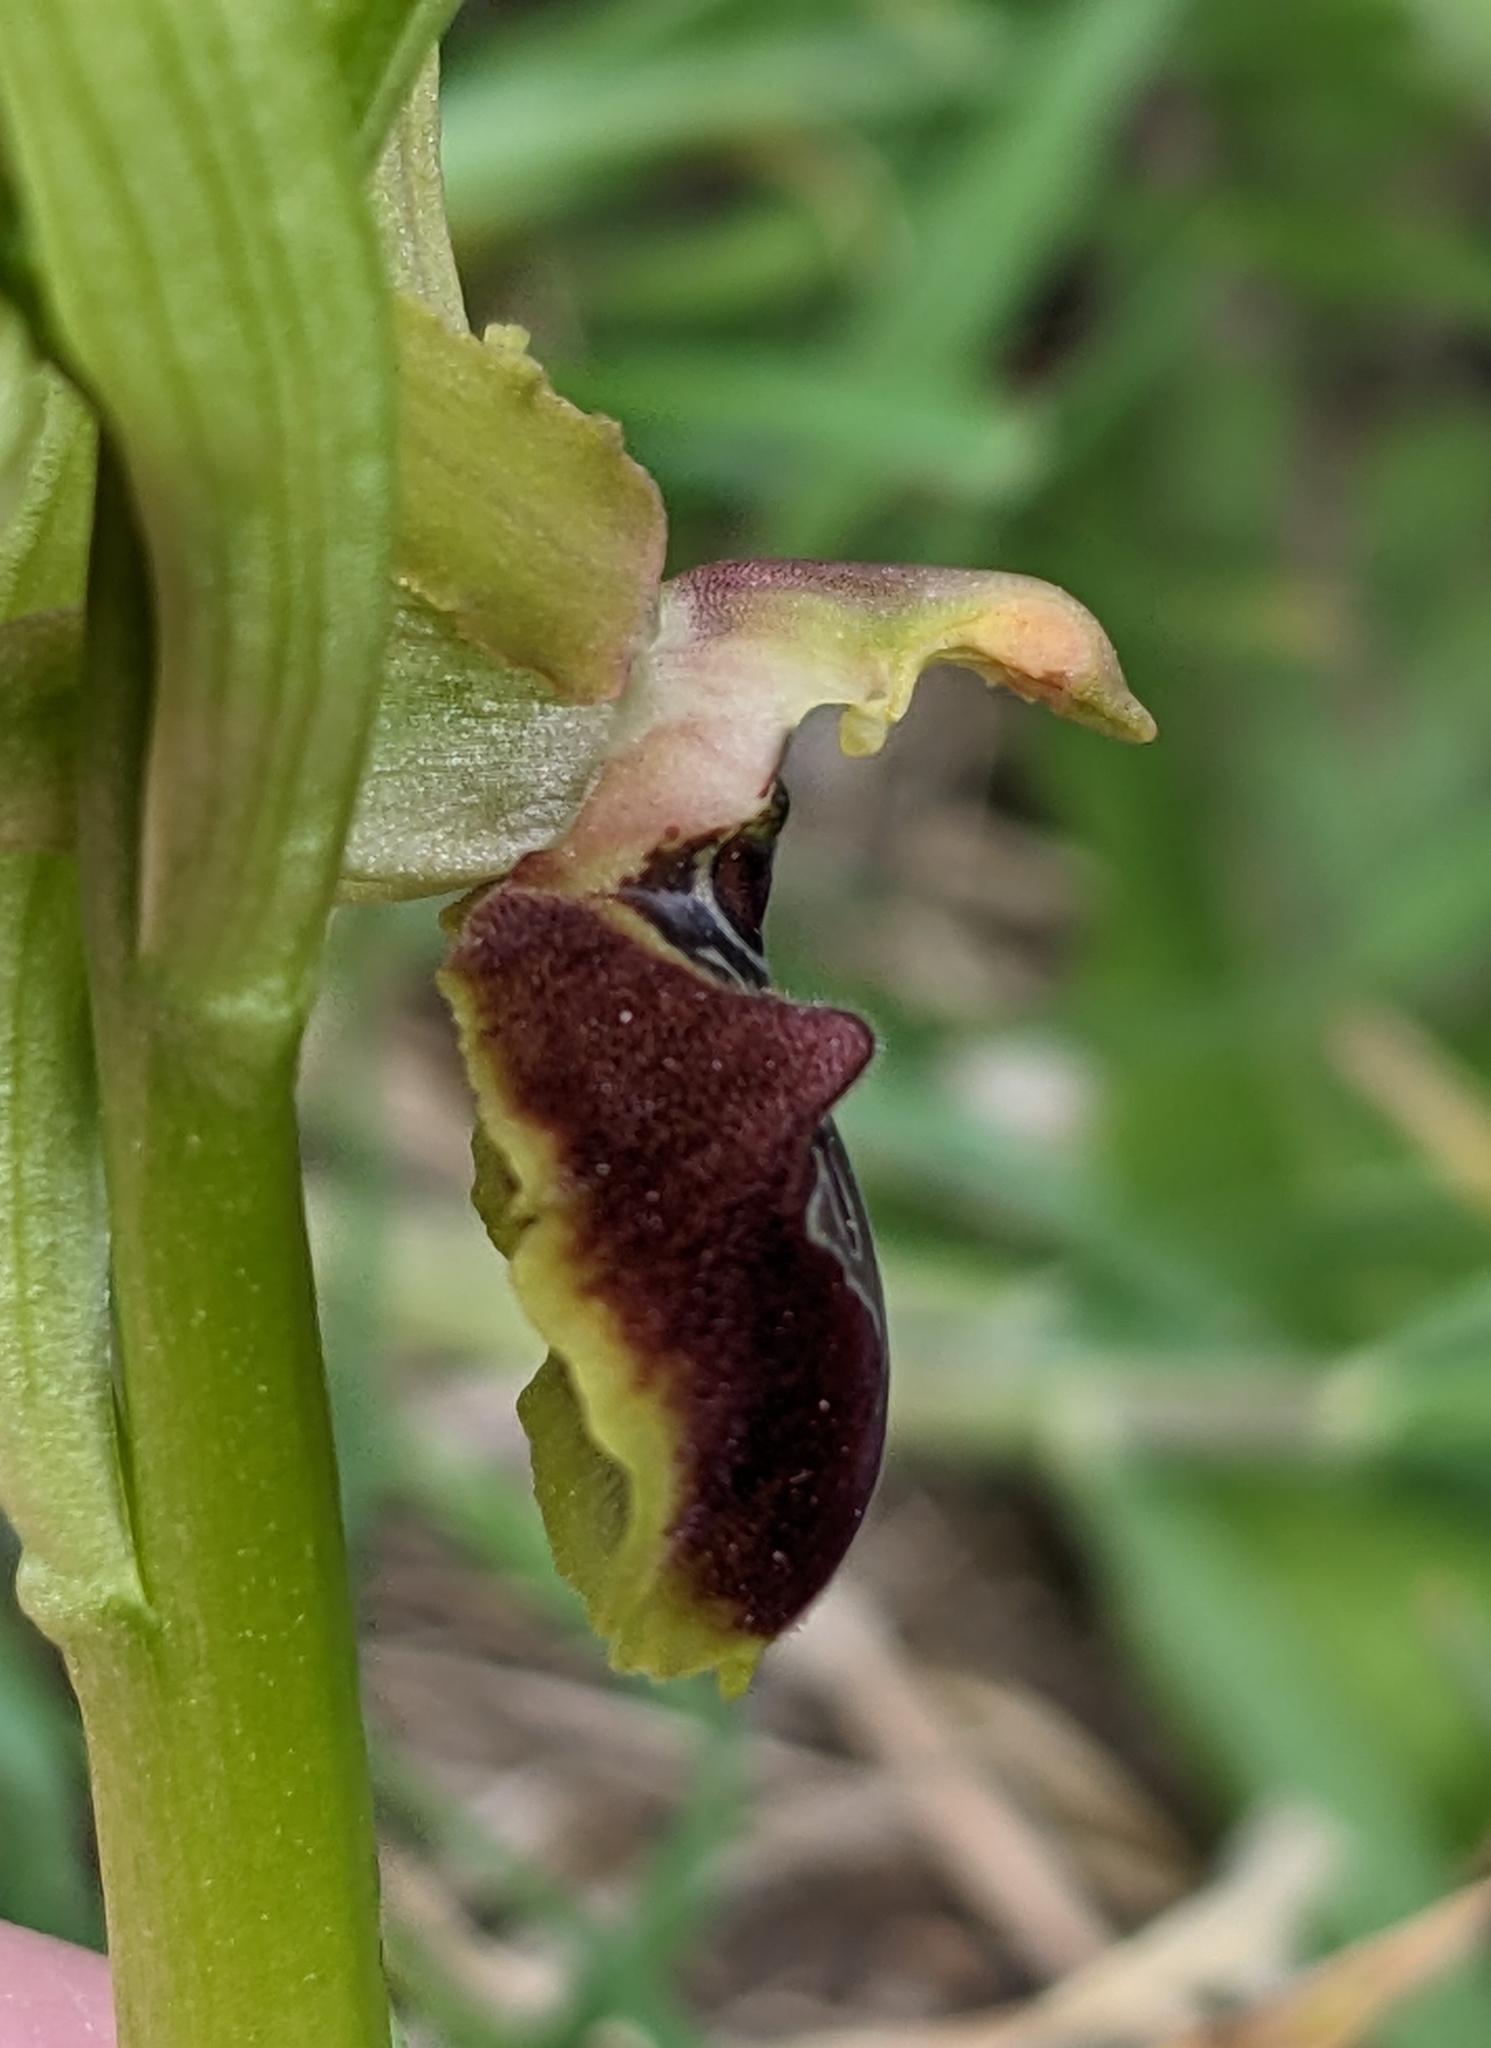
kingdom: Plantae
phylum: Tracheophyta
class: Liliopsida
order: Asparagales
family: Orchidaceae
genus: Ophrys
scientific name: Ophrys sphegodes
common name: Early spider-orchid
